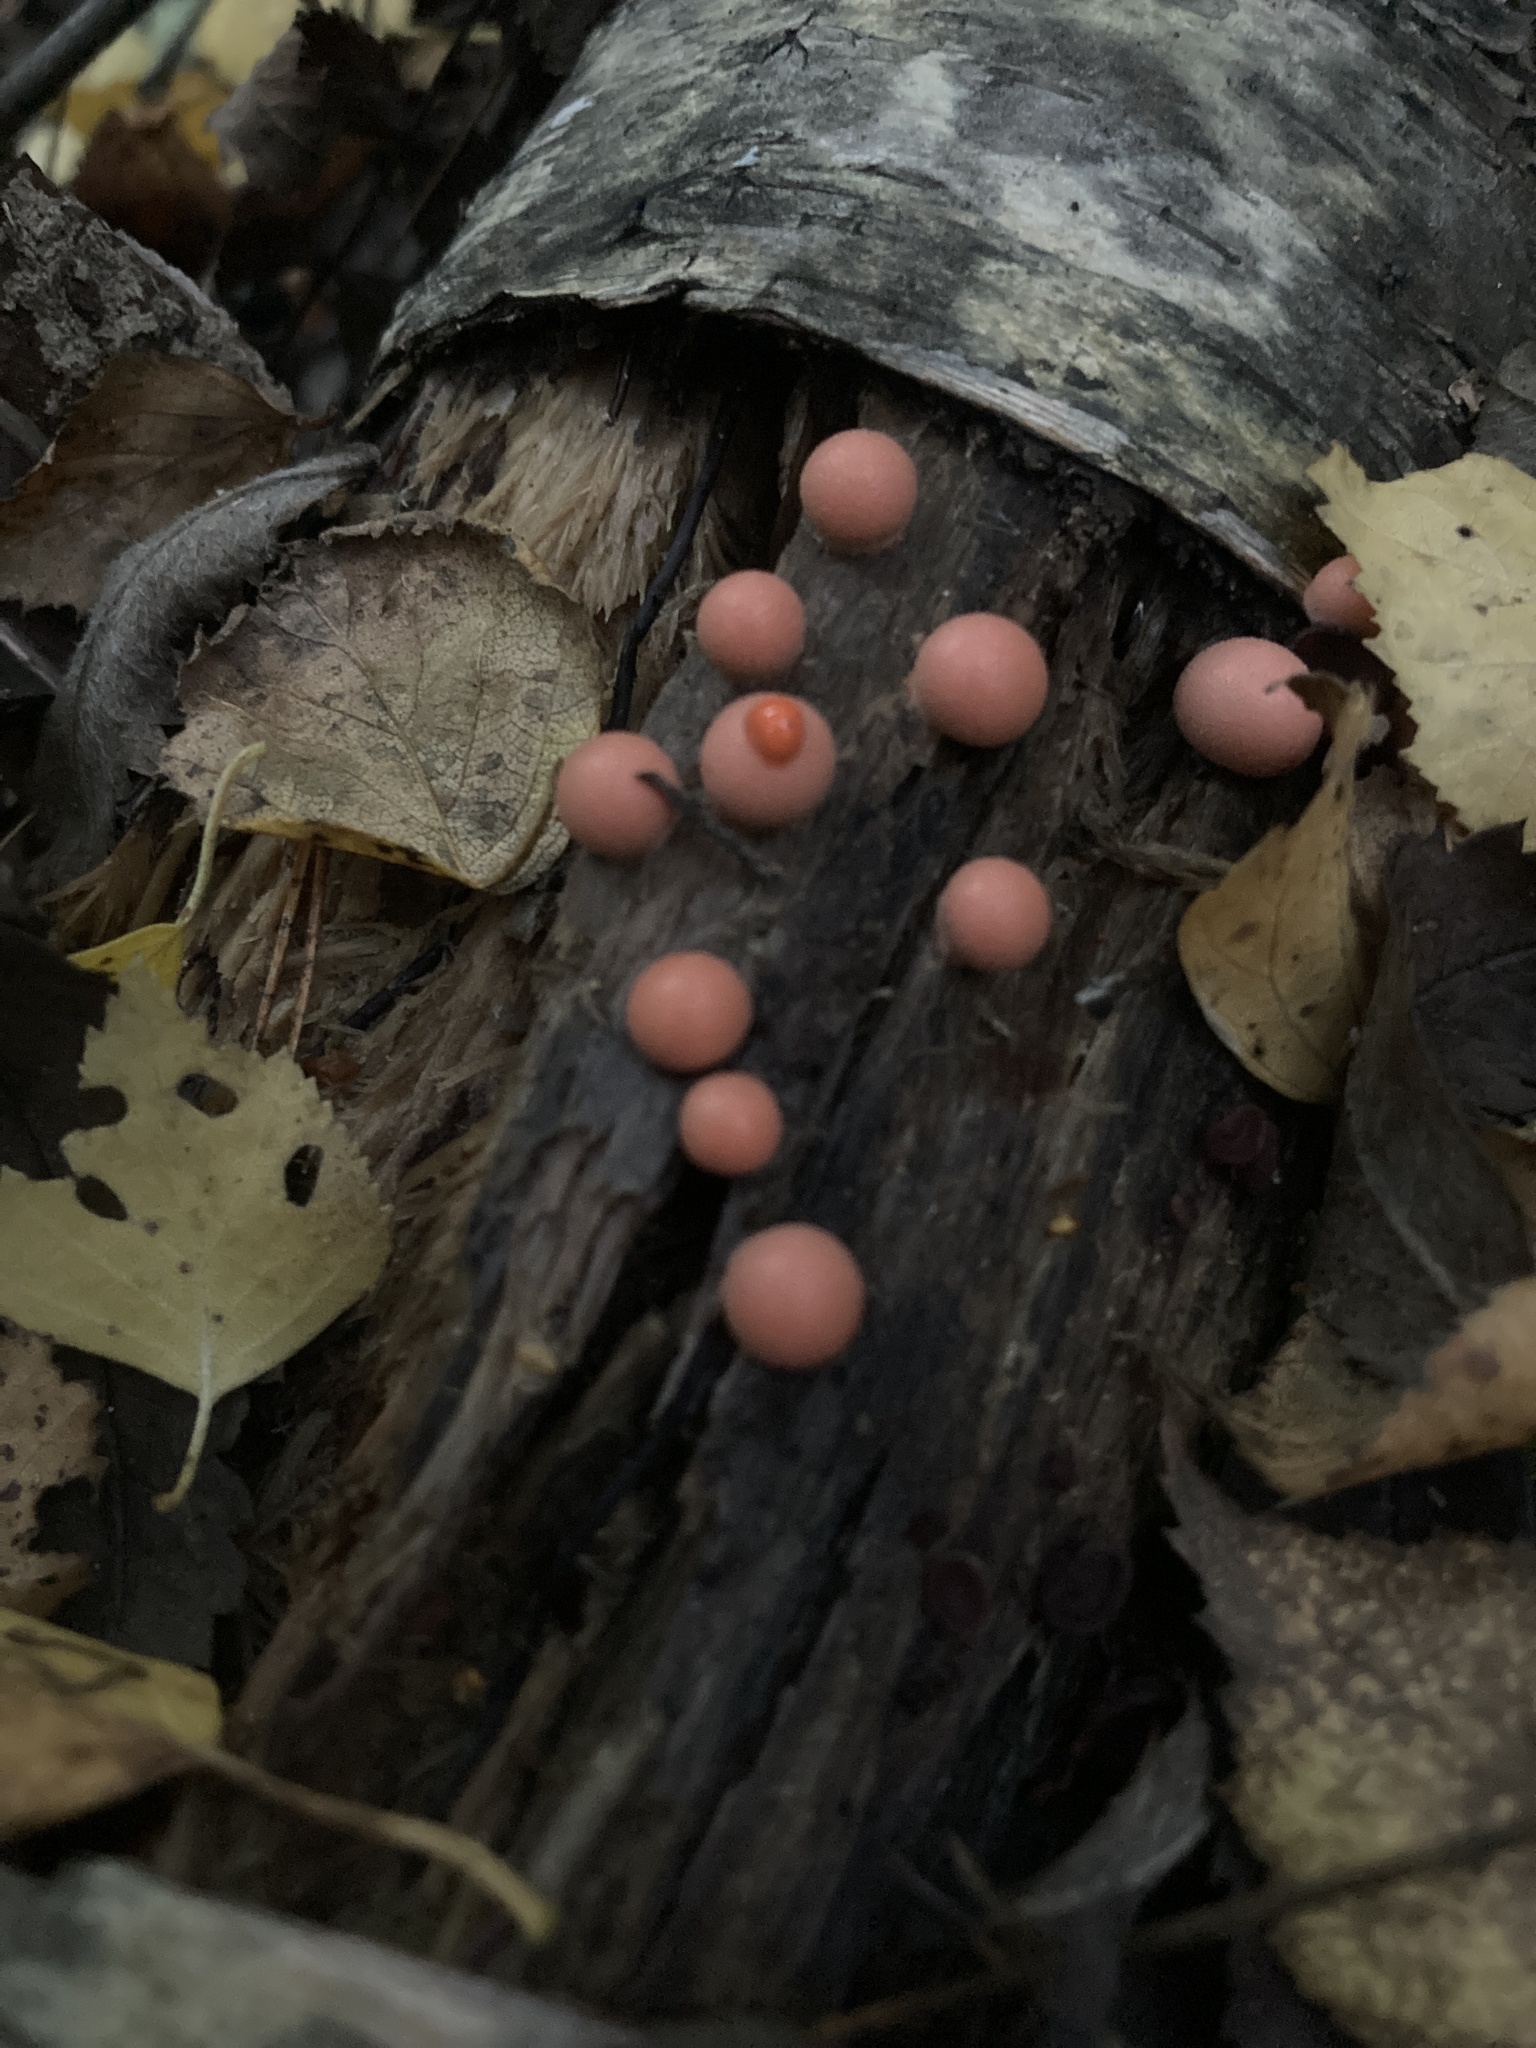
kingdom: Protozoa
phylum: Mycetozoa
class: Myxomycetes
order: Cribrariales
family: Tubiferaceae
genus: Lycogala
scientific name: Lycogala epidendrum
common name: Wolf's milk
